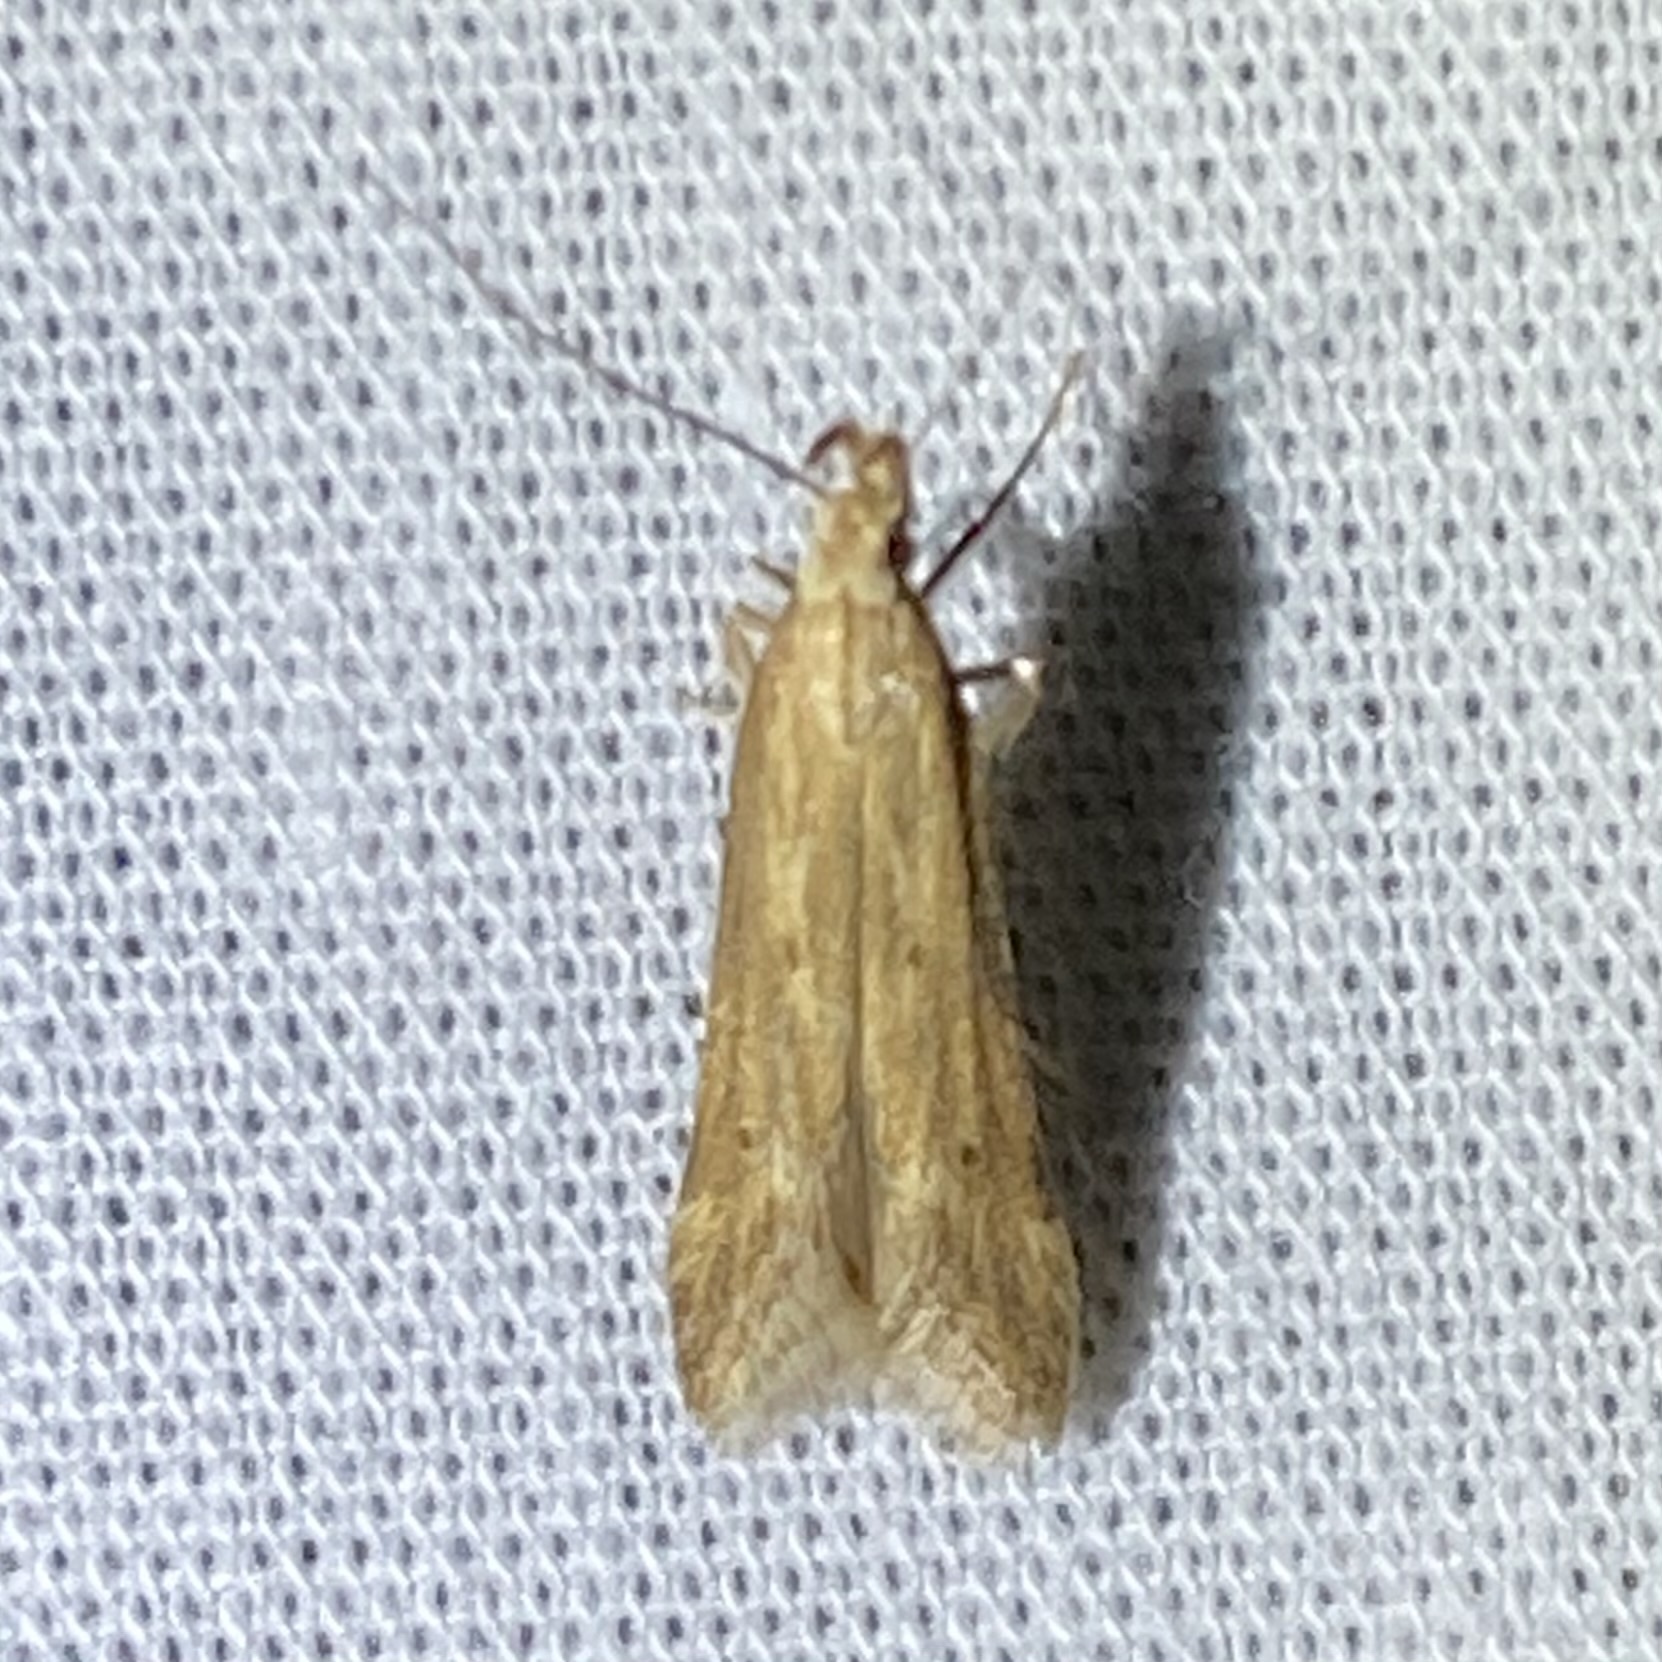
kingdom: Animalia
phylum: Arthropoda
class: Insecta
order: Lepidoptera
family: Gelechiidae
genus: Metzneria
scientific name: Metzneria lappella
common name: Burdock neb
